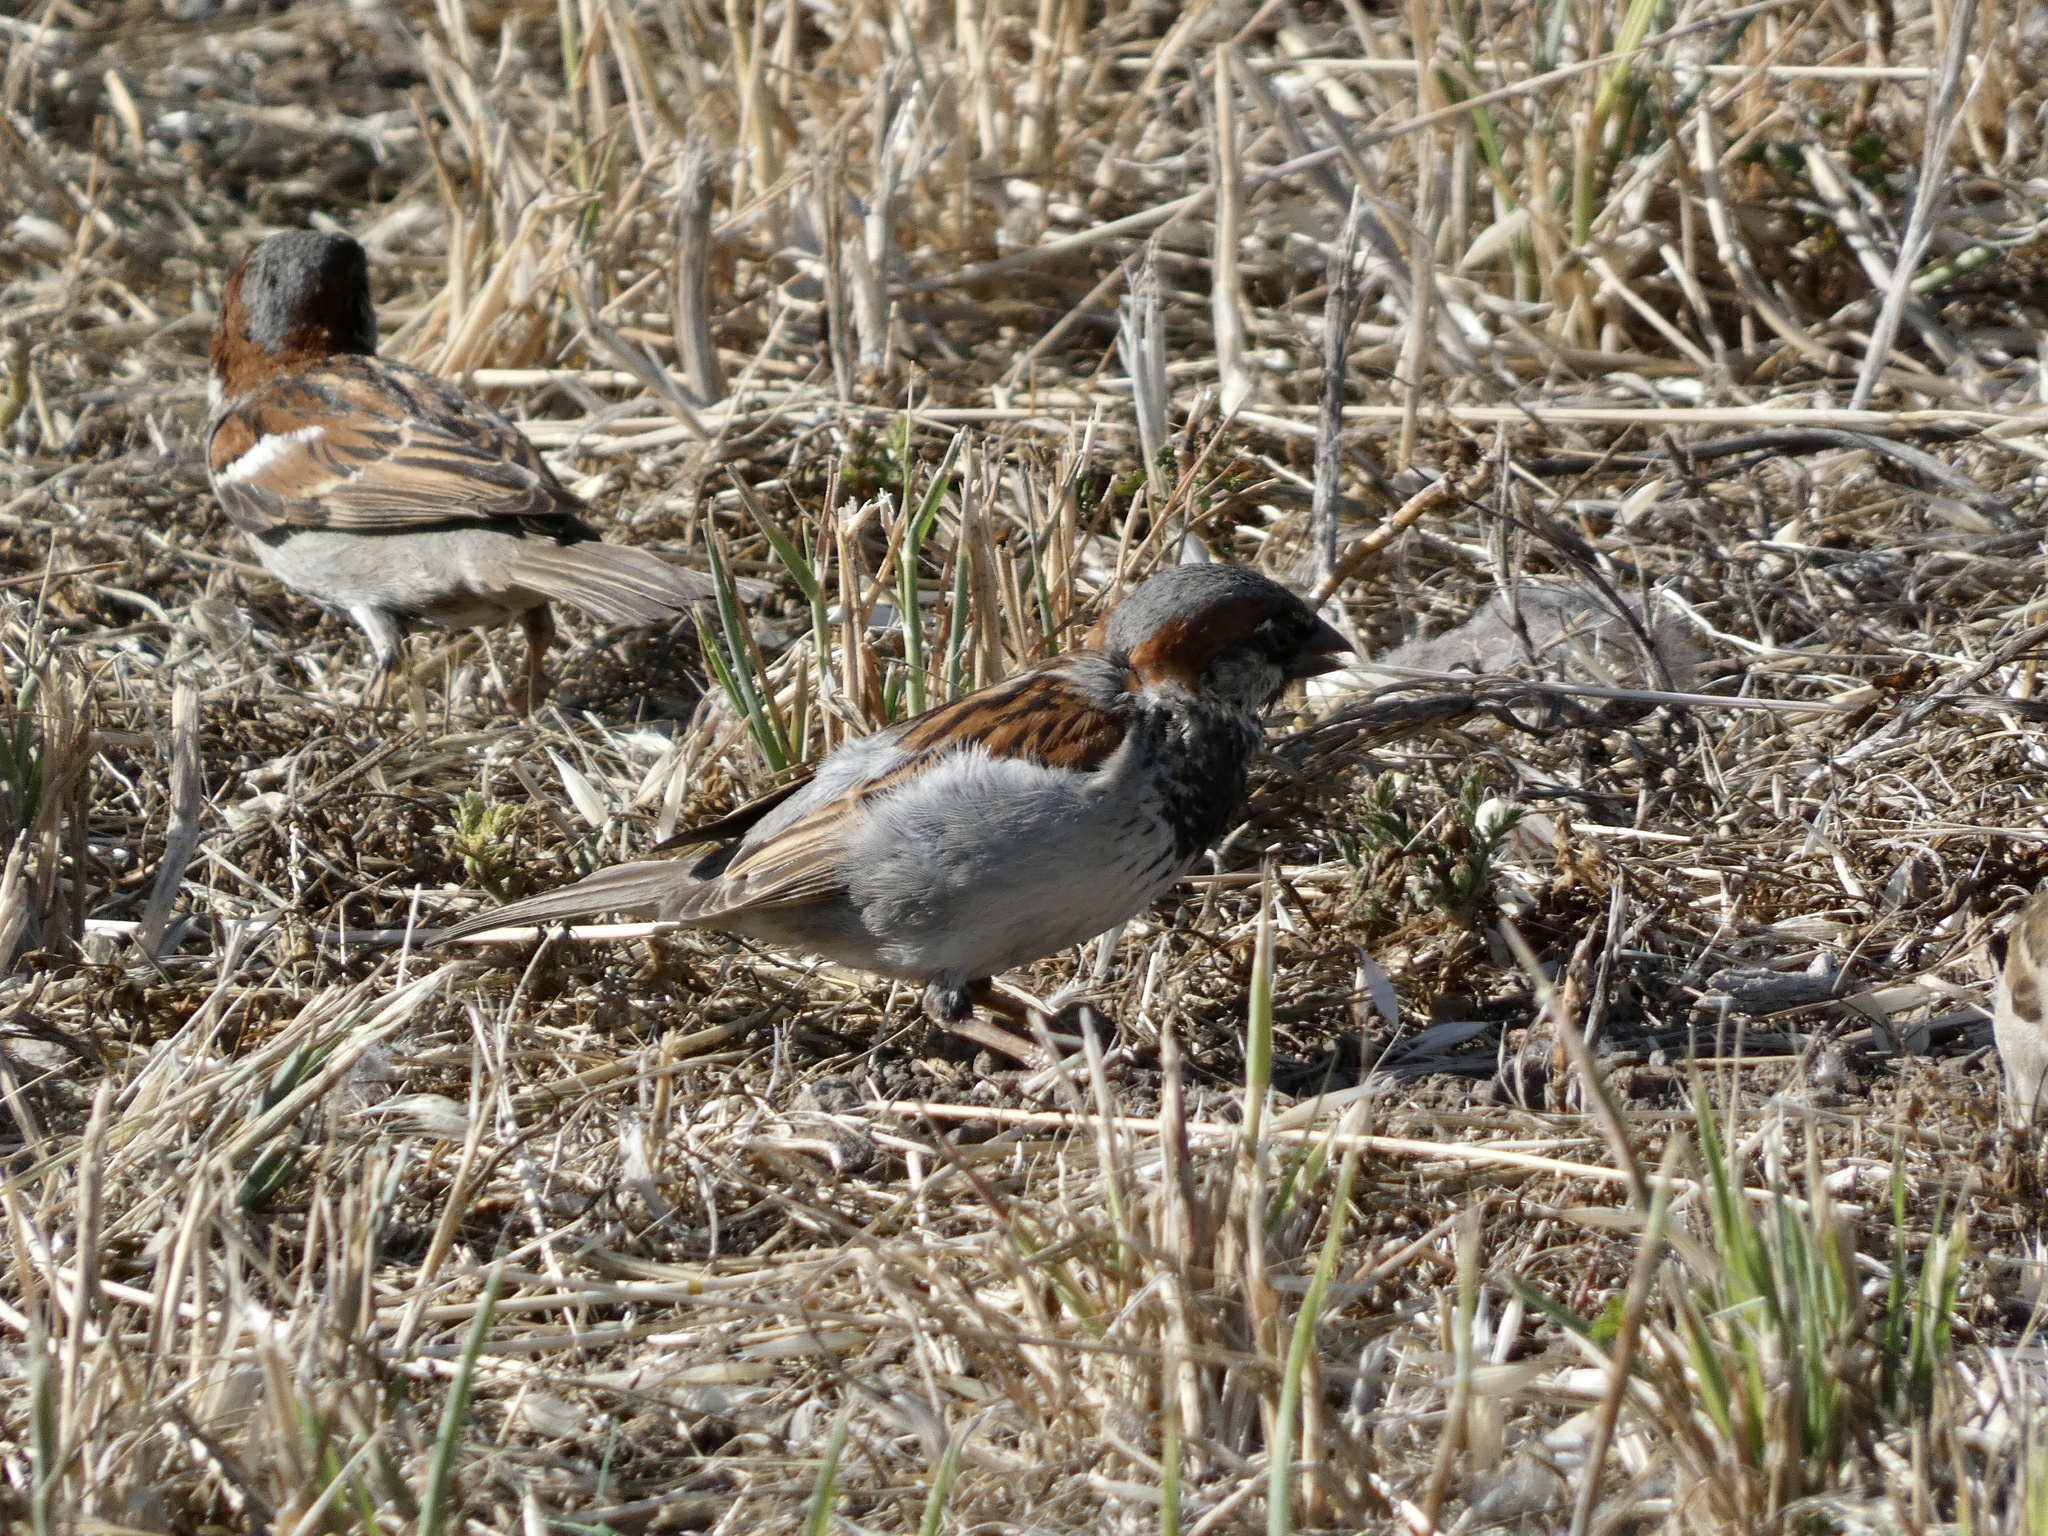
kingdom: Animalia
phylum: Chordata
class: Aves
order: Passeriformes
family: Passeridae
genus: Passer
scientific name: Passer domesticus
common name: House sparrow
